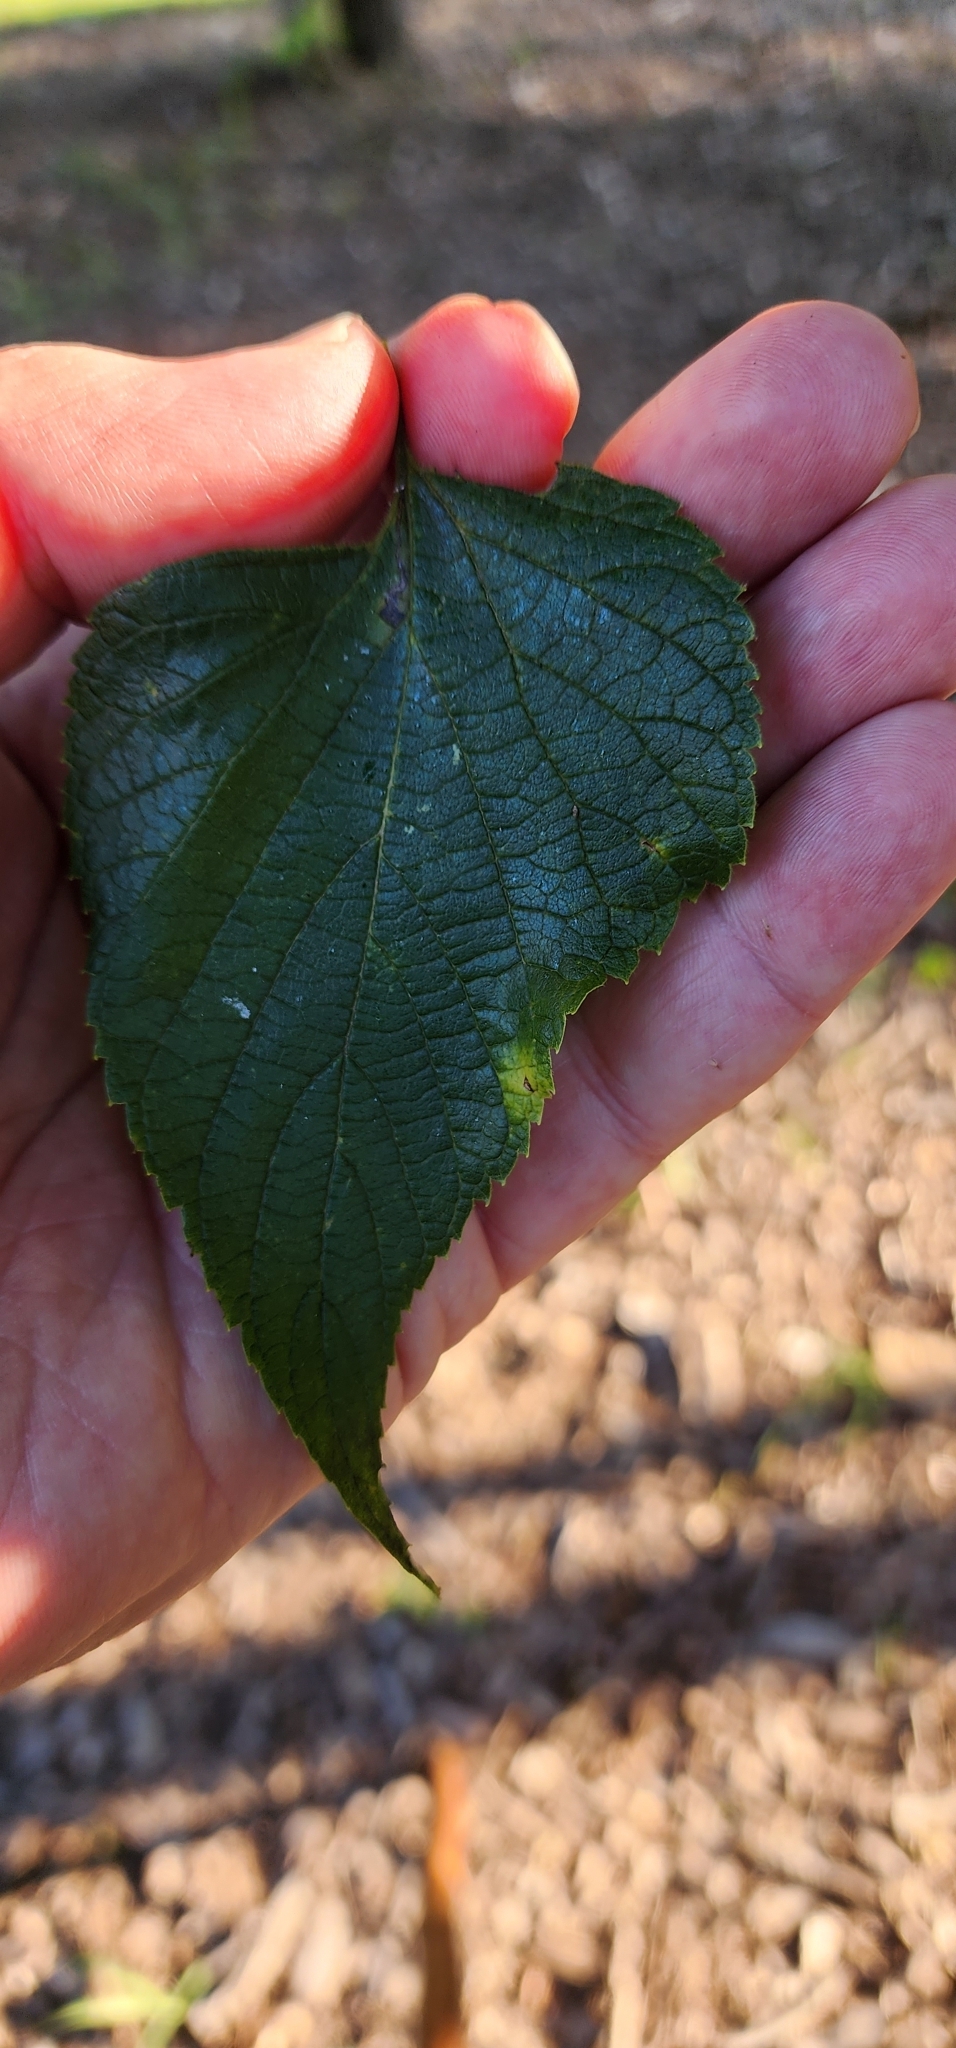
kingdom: Plantae
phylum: Tracheophyta
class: Magnoliopsida
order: Rosales
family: Cannabaceae
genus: Celtis
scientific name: Celtis occidentalis
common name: Common hackberry
